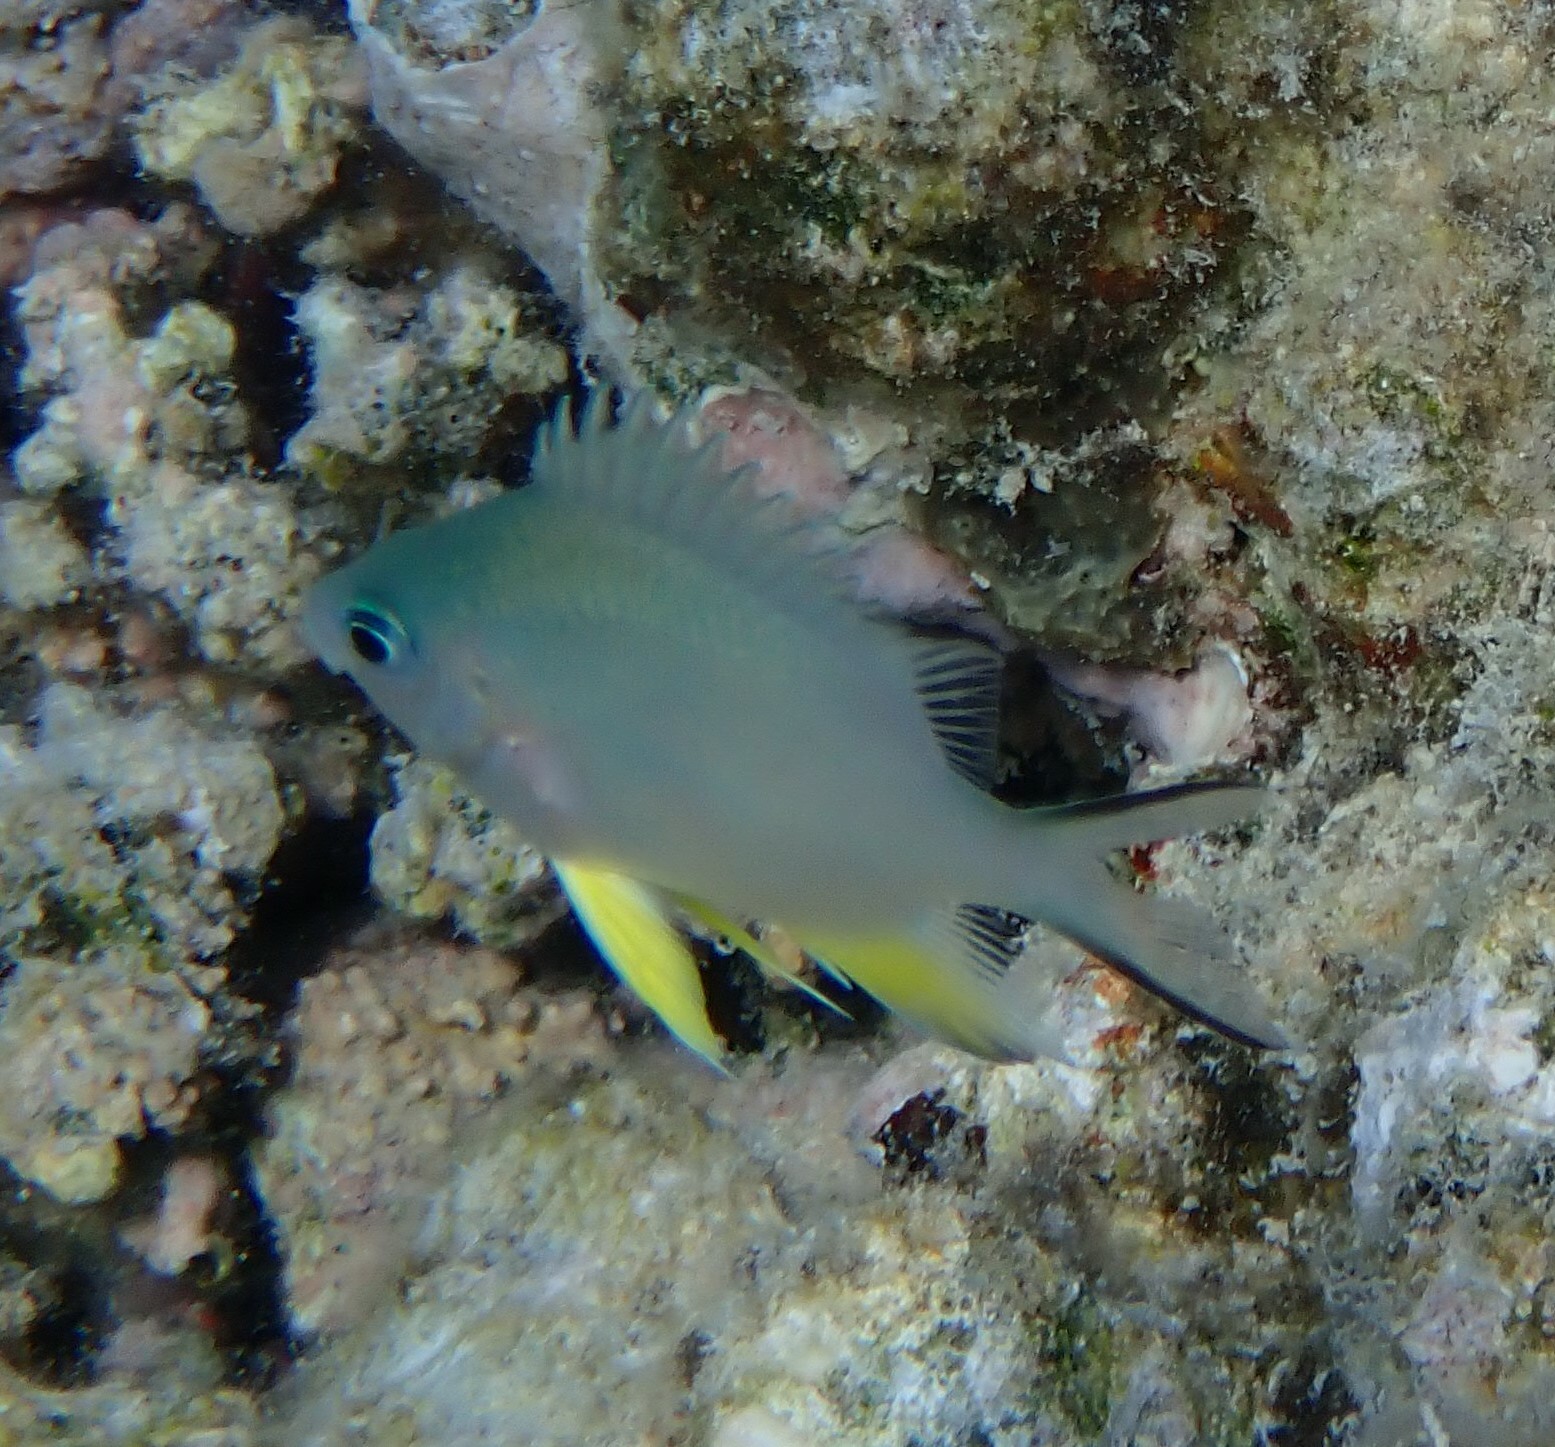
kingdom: Animalia
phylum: Chordata
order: Perciformes
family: Pomacentridae
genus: Amblyglyphidodon
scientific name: Amblyglyphidodon indicus
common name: Maldives damselfish
